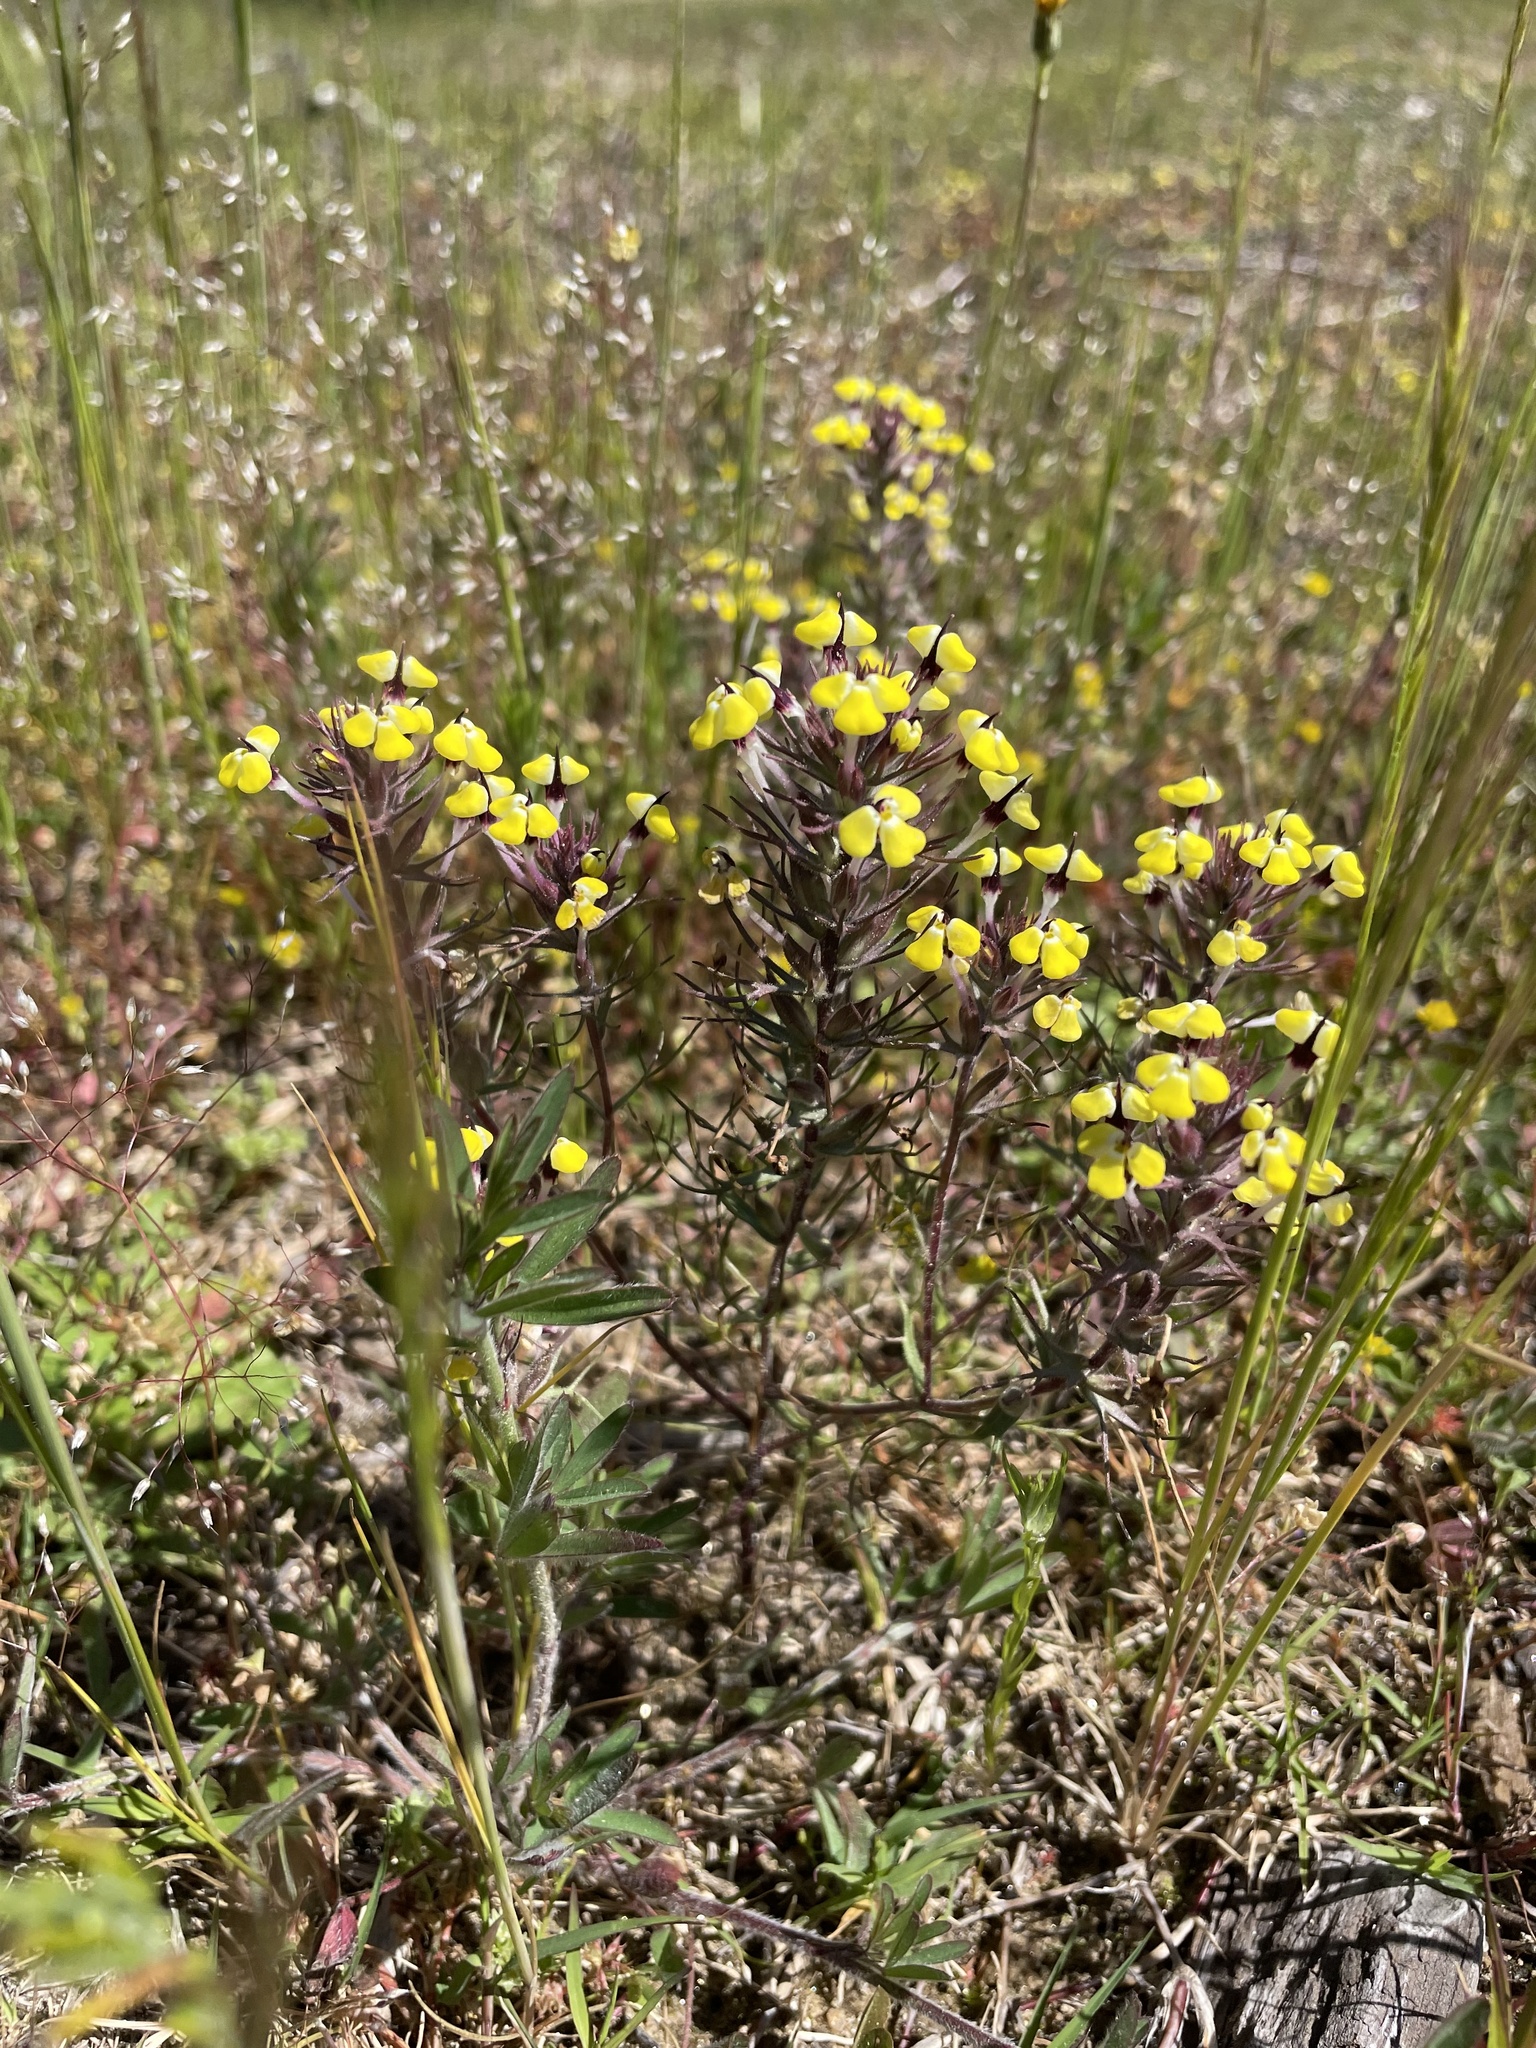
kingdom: Plantae
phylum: Tracheophyta
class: Magnoliopsida
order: Lamiales
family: Orobanchaceae
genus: Triphysaria
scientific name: Triphysaria eriantha
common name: Johnny-tuck
